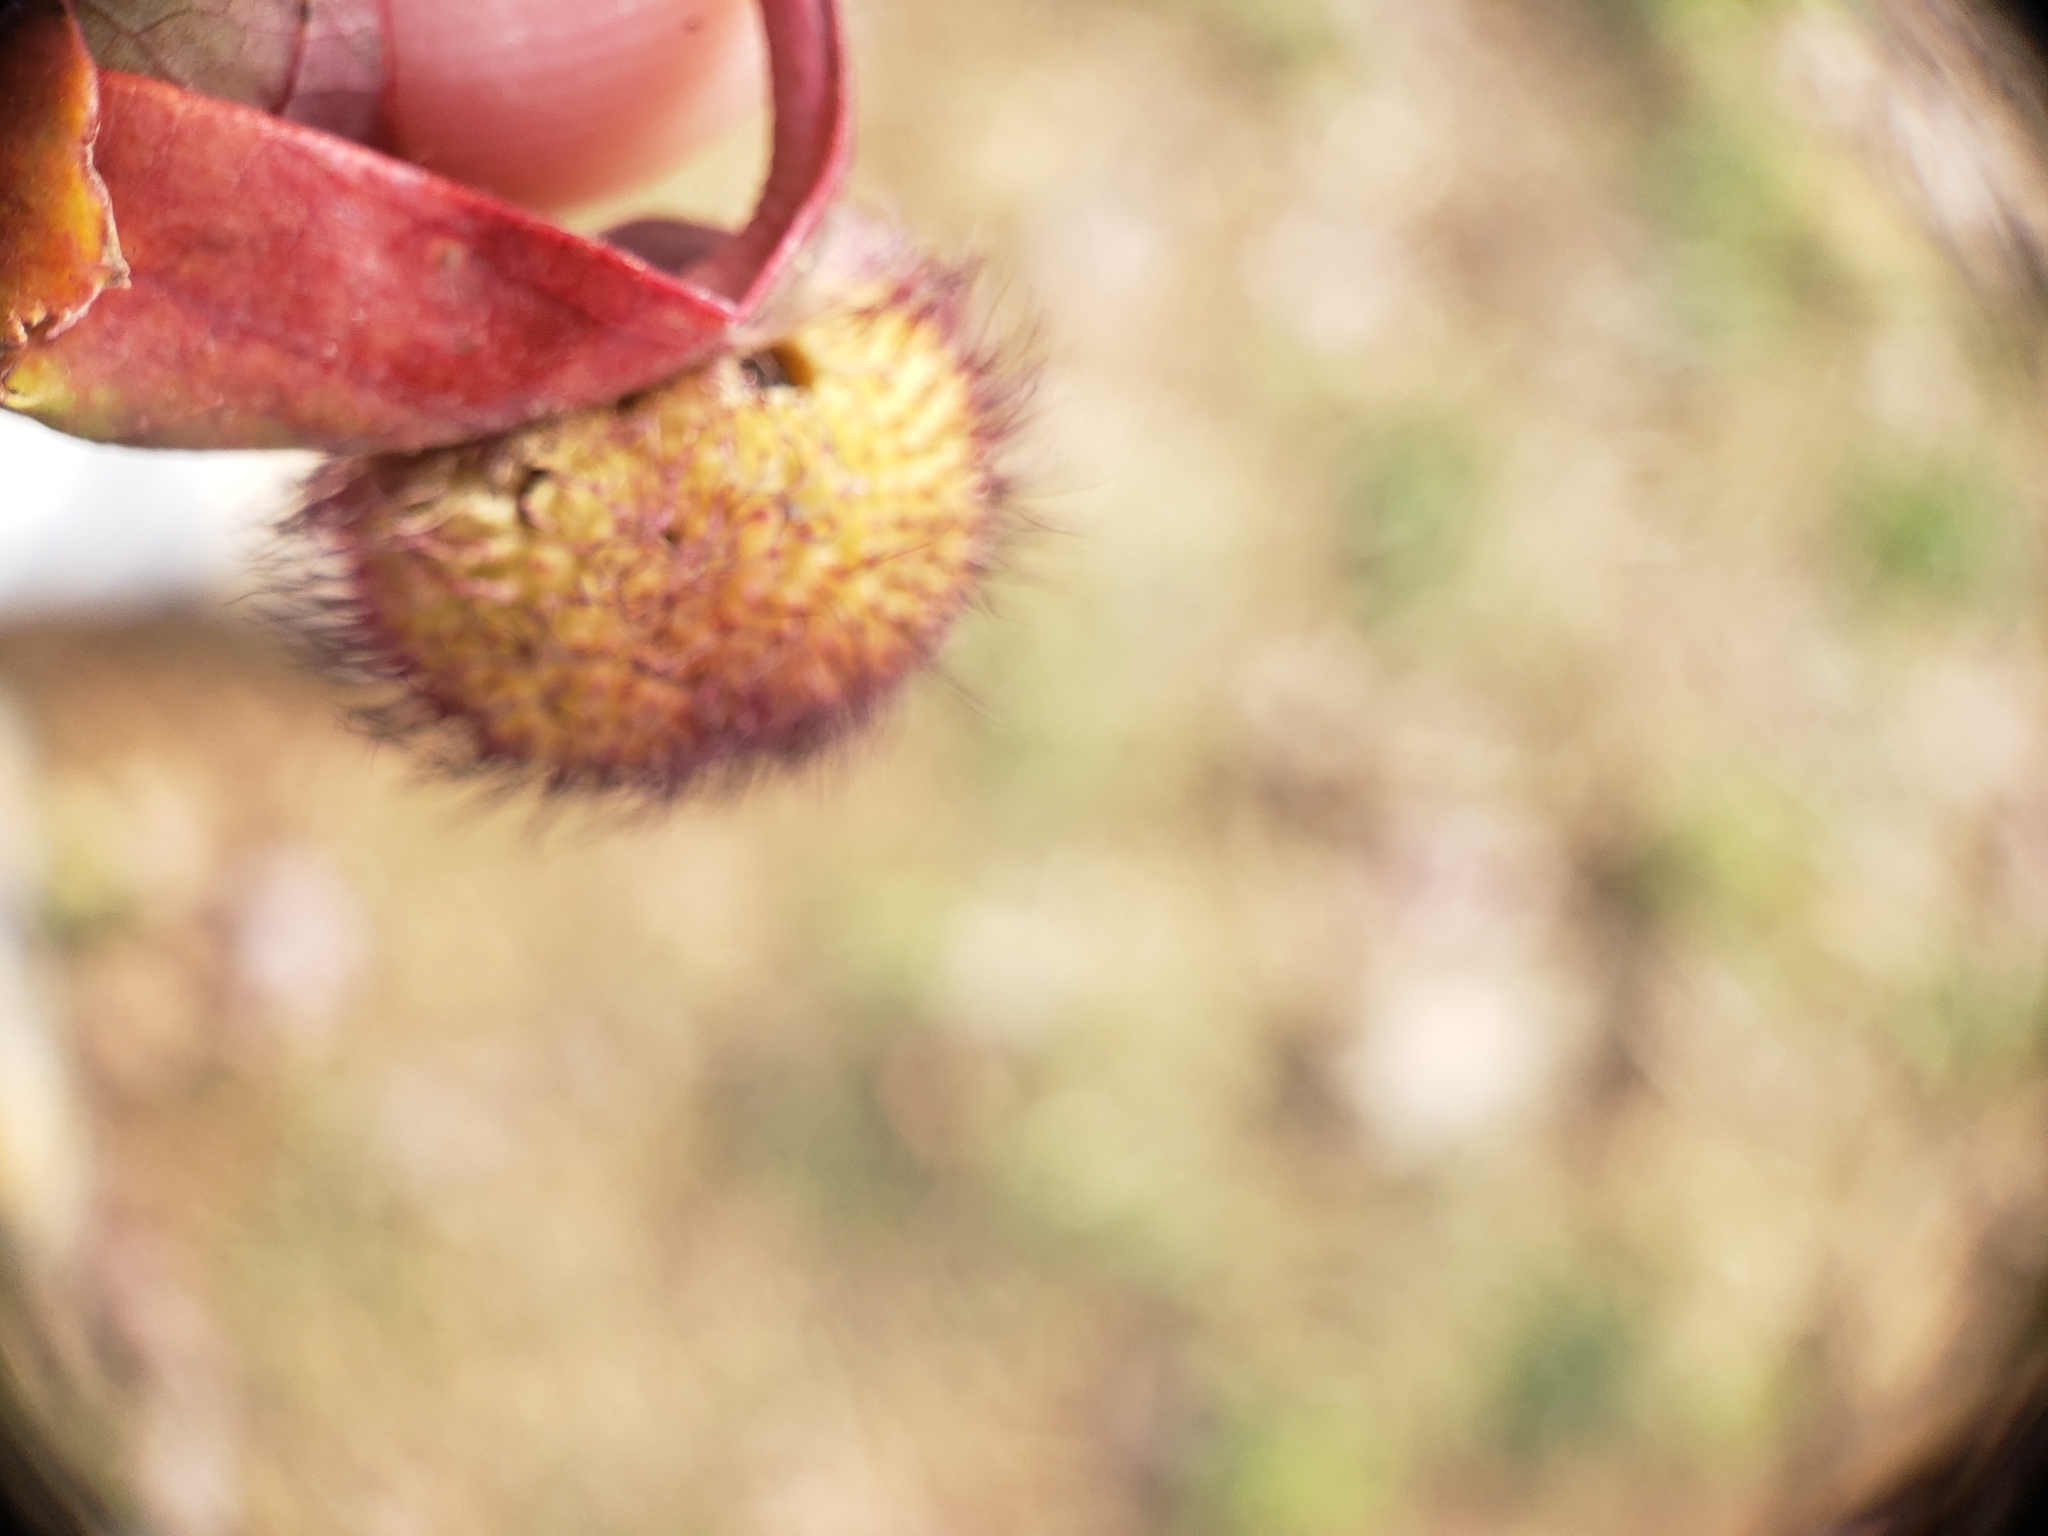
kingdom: Animalia
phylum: Arthropoda
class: Insecta
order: Hymenoptera
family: Cynipidae
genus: Acraspis
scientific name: Acraspis erinacei
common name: Hedgehog gall wasp
